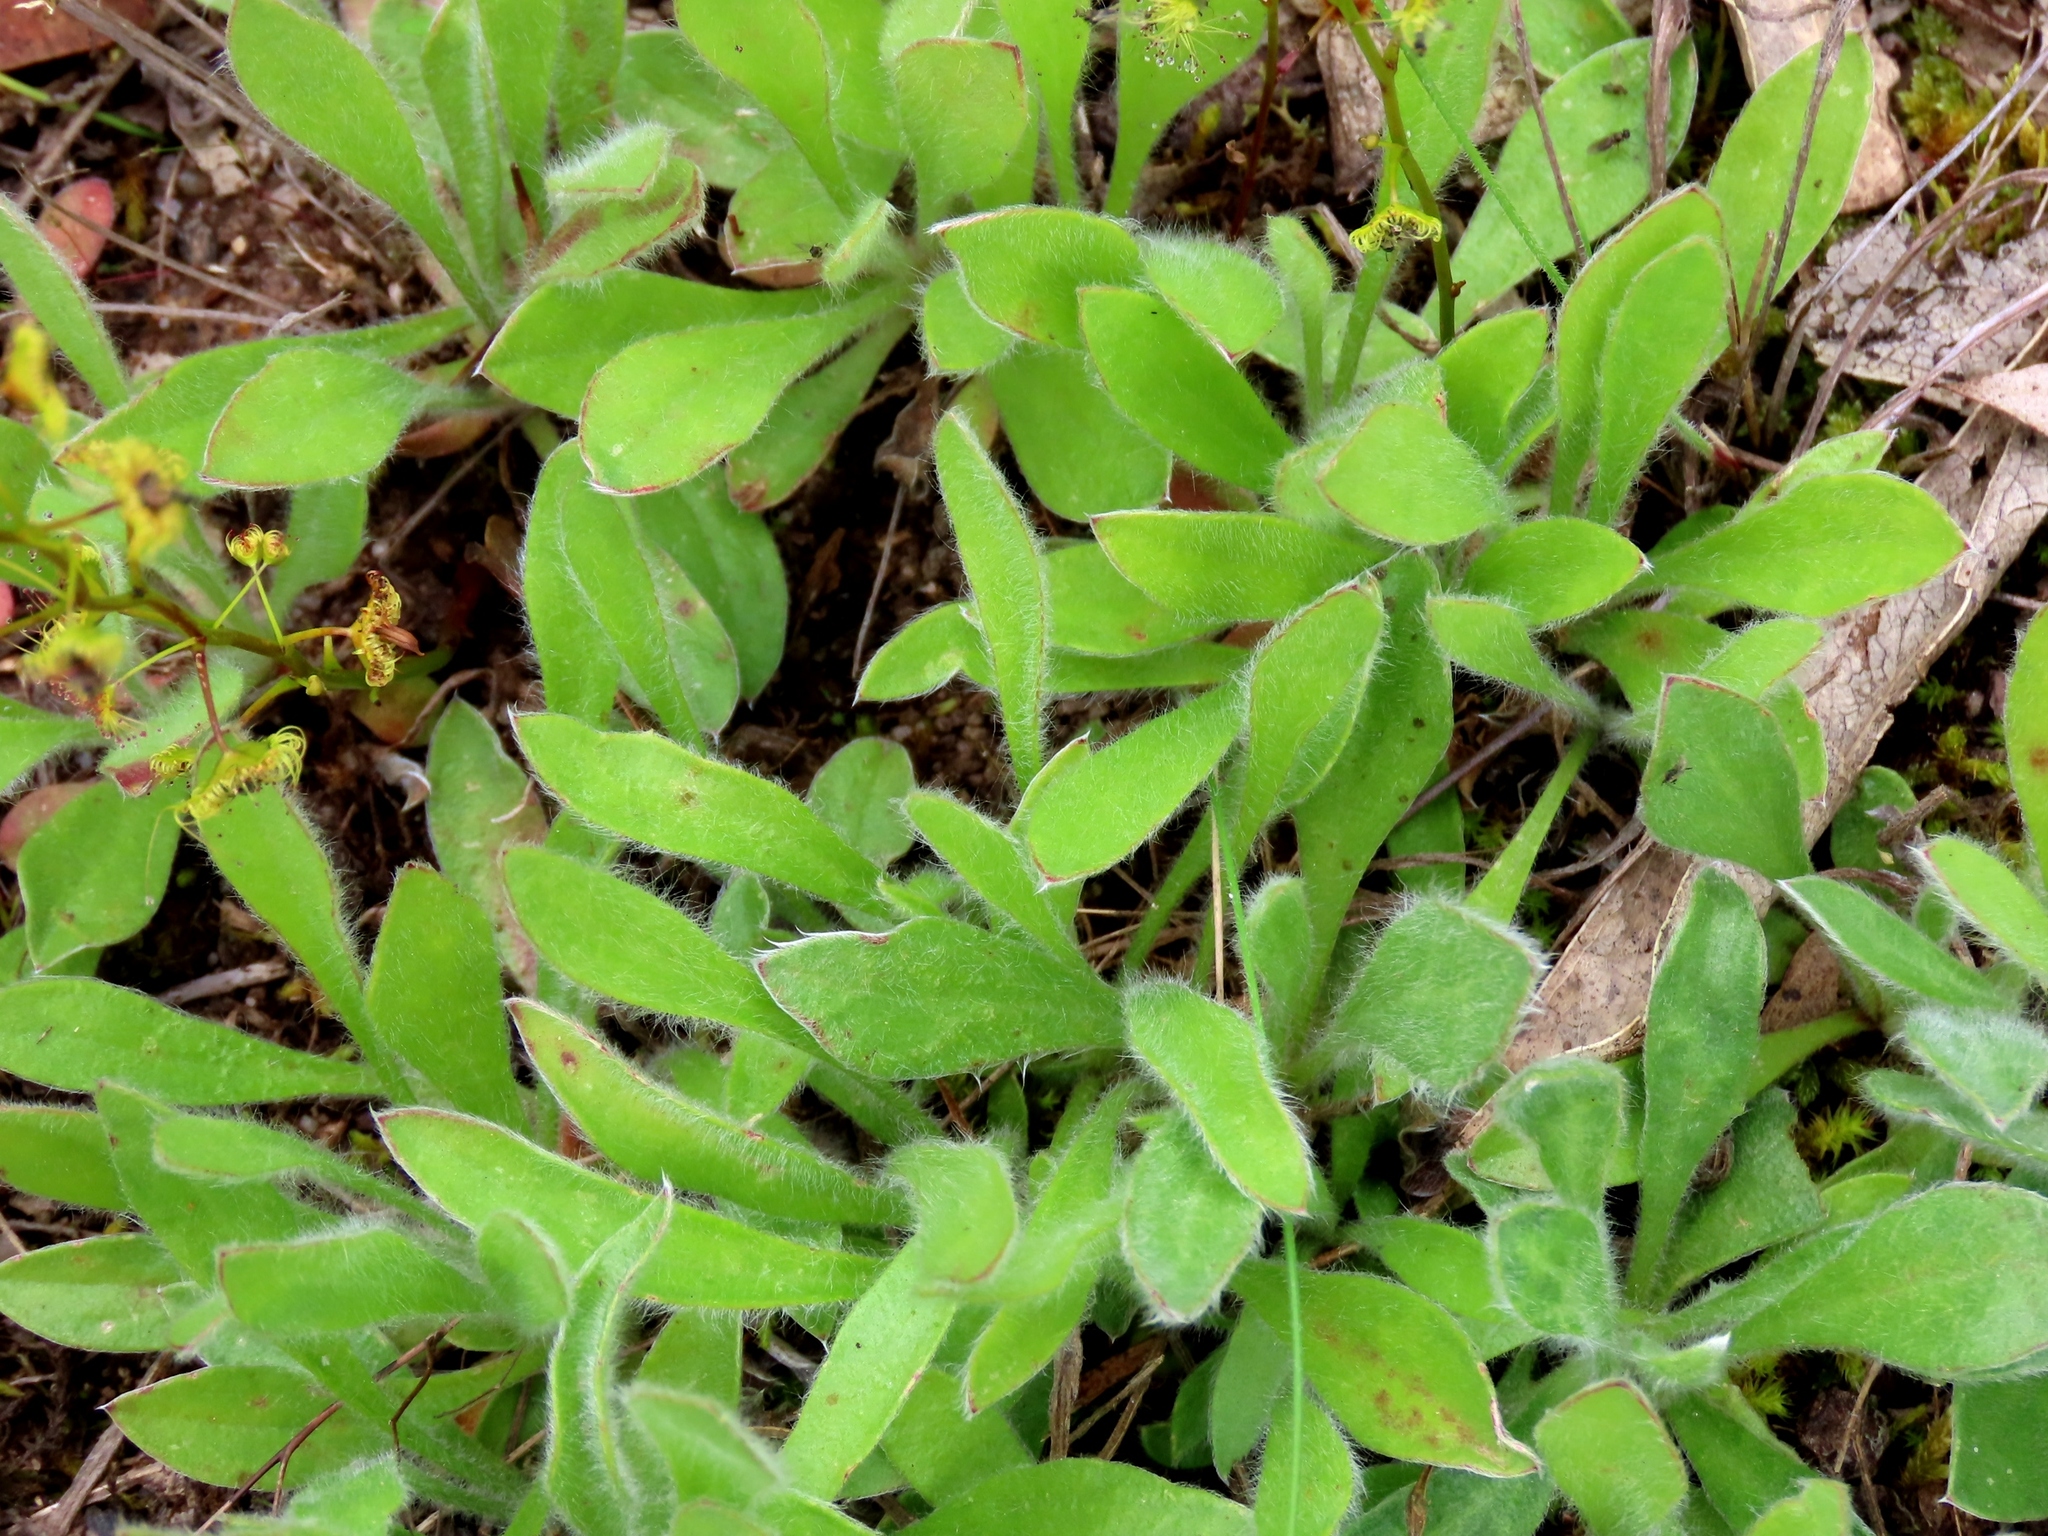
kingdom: Plantae
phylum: Tracheophyta
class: Magnoliopsida
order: Asterales
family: Goodeniaceae
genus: Brunonia
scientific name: Brunonia australis
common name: Blue pincushion
